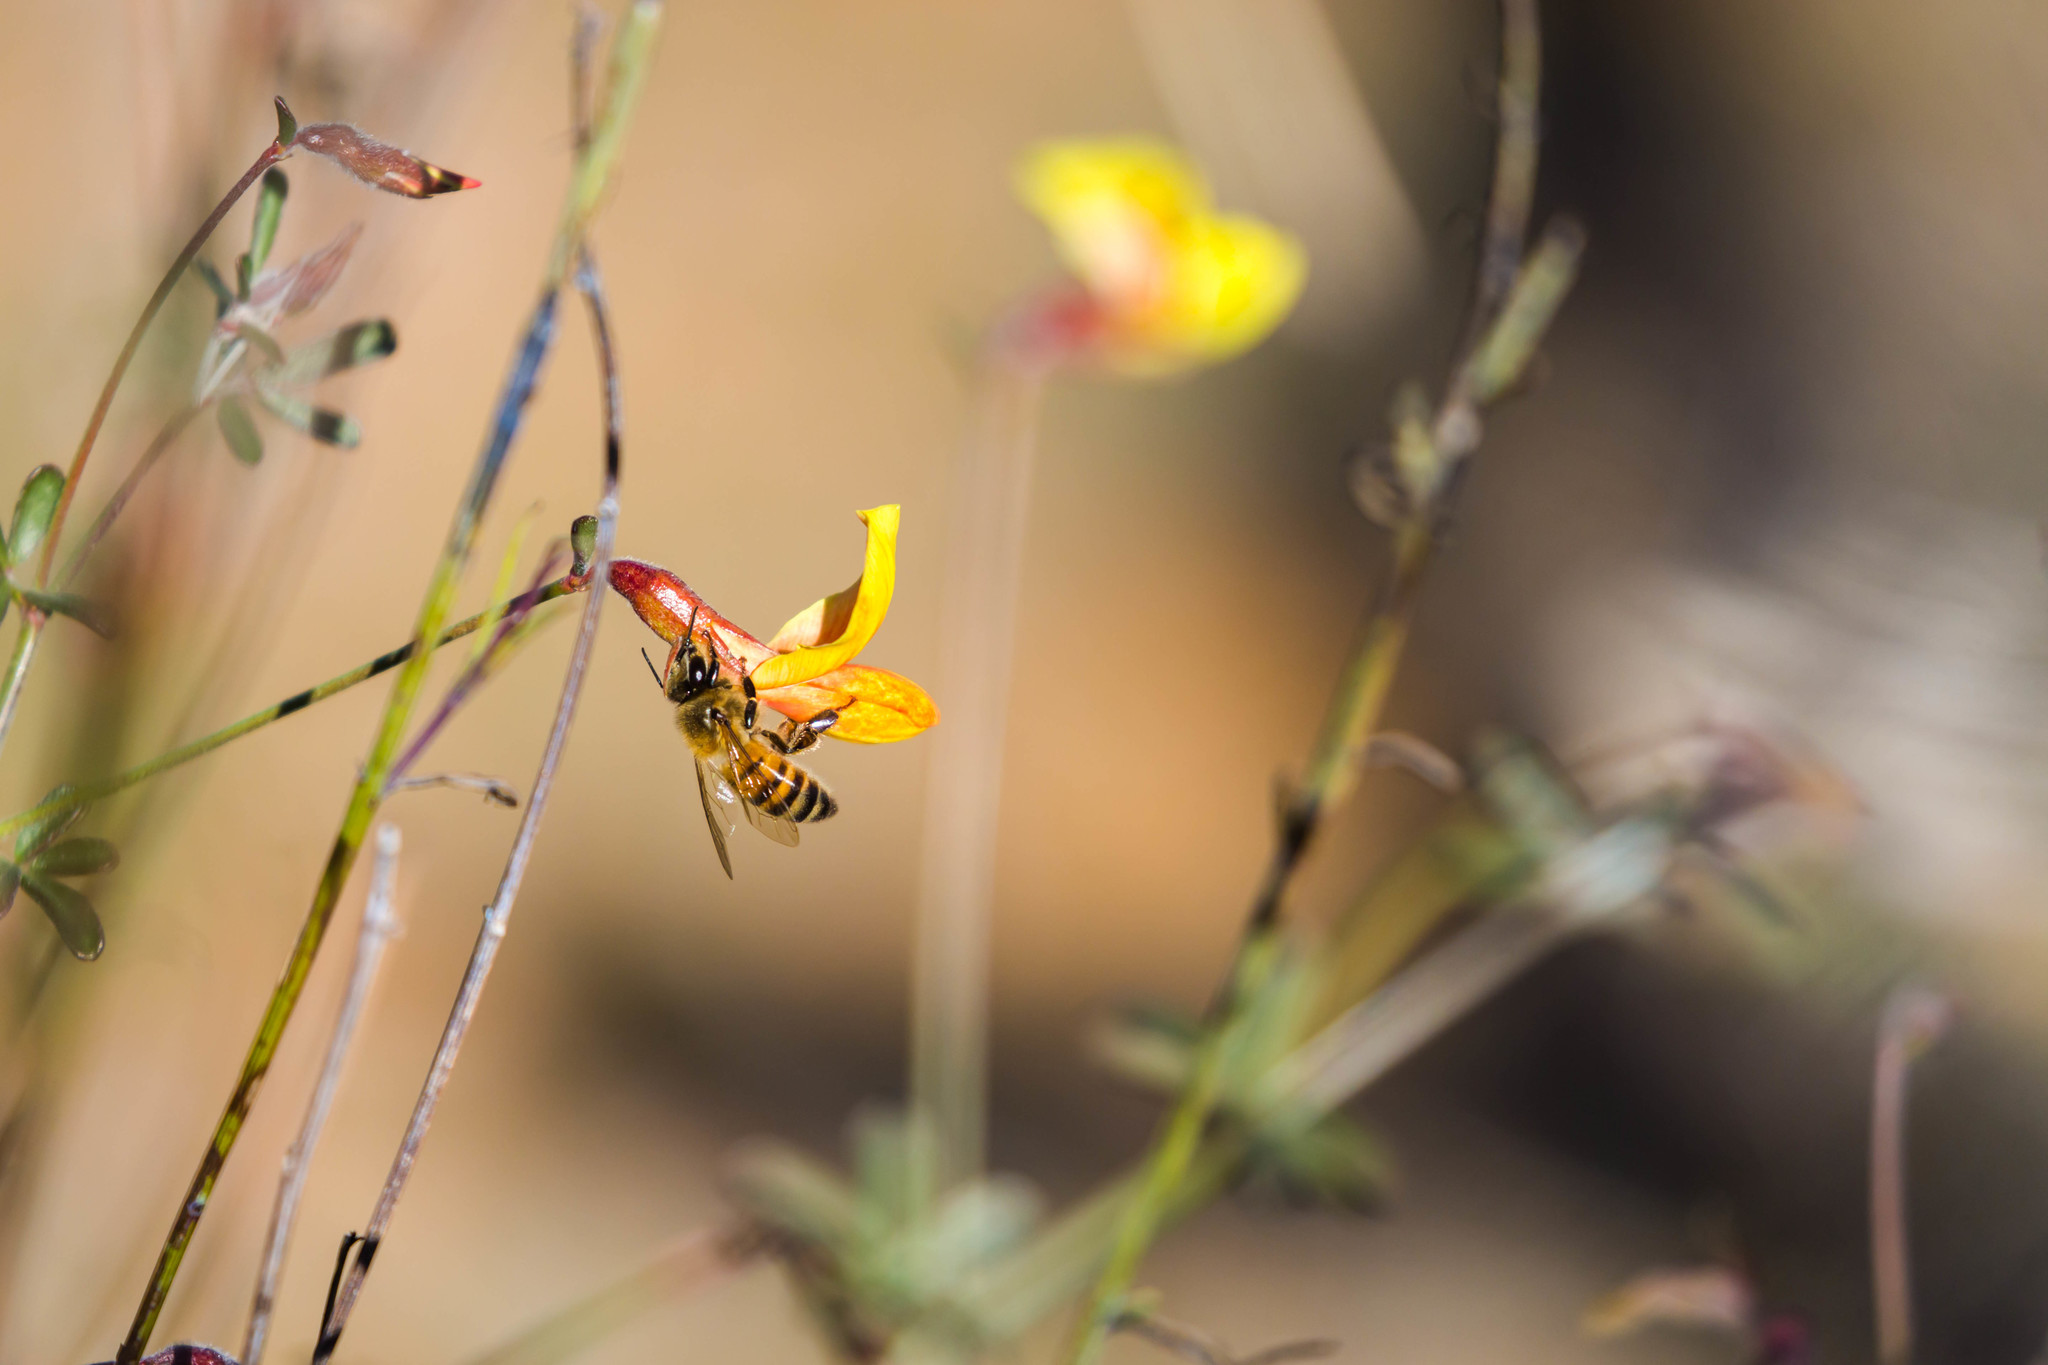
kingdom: Animalia
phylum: Arthropoda
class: Insecta
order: Hymenoptera
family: Apidae
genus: Apis
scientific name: Apis mellifera
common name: Honey bee
